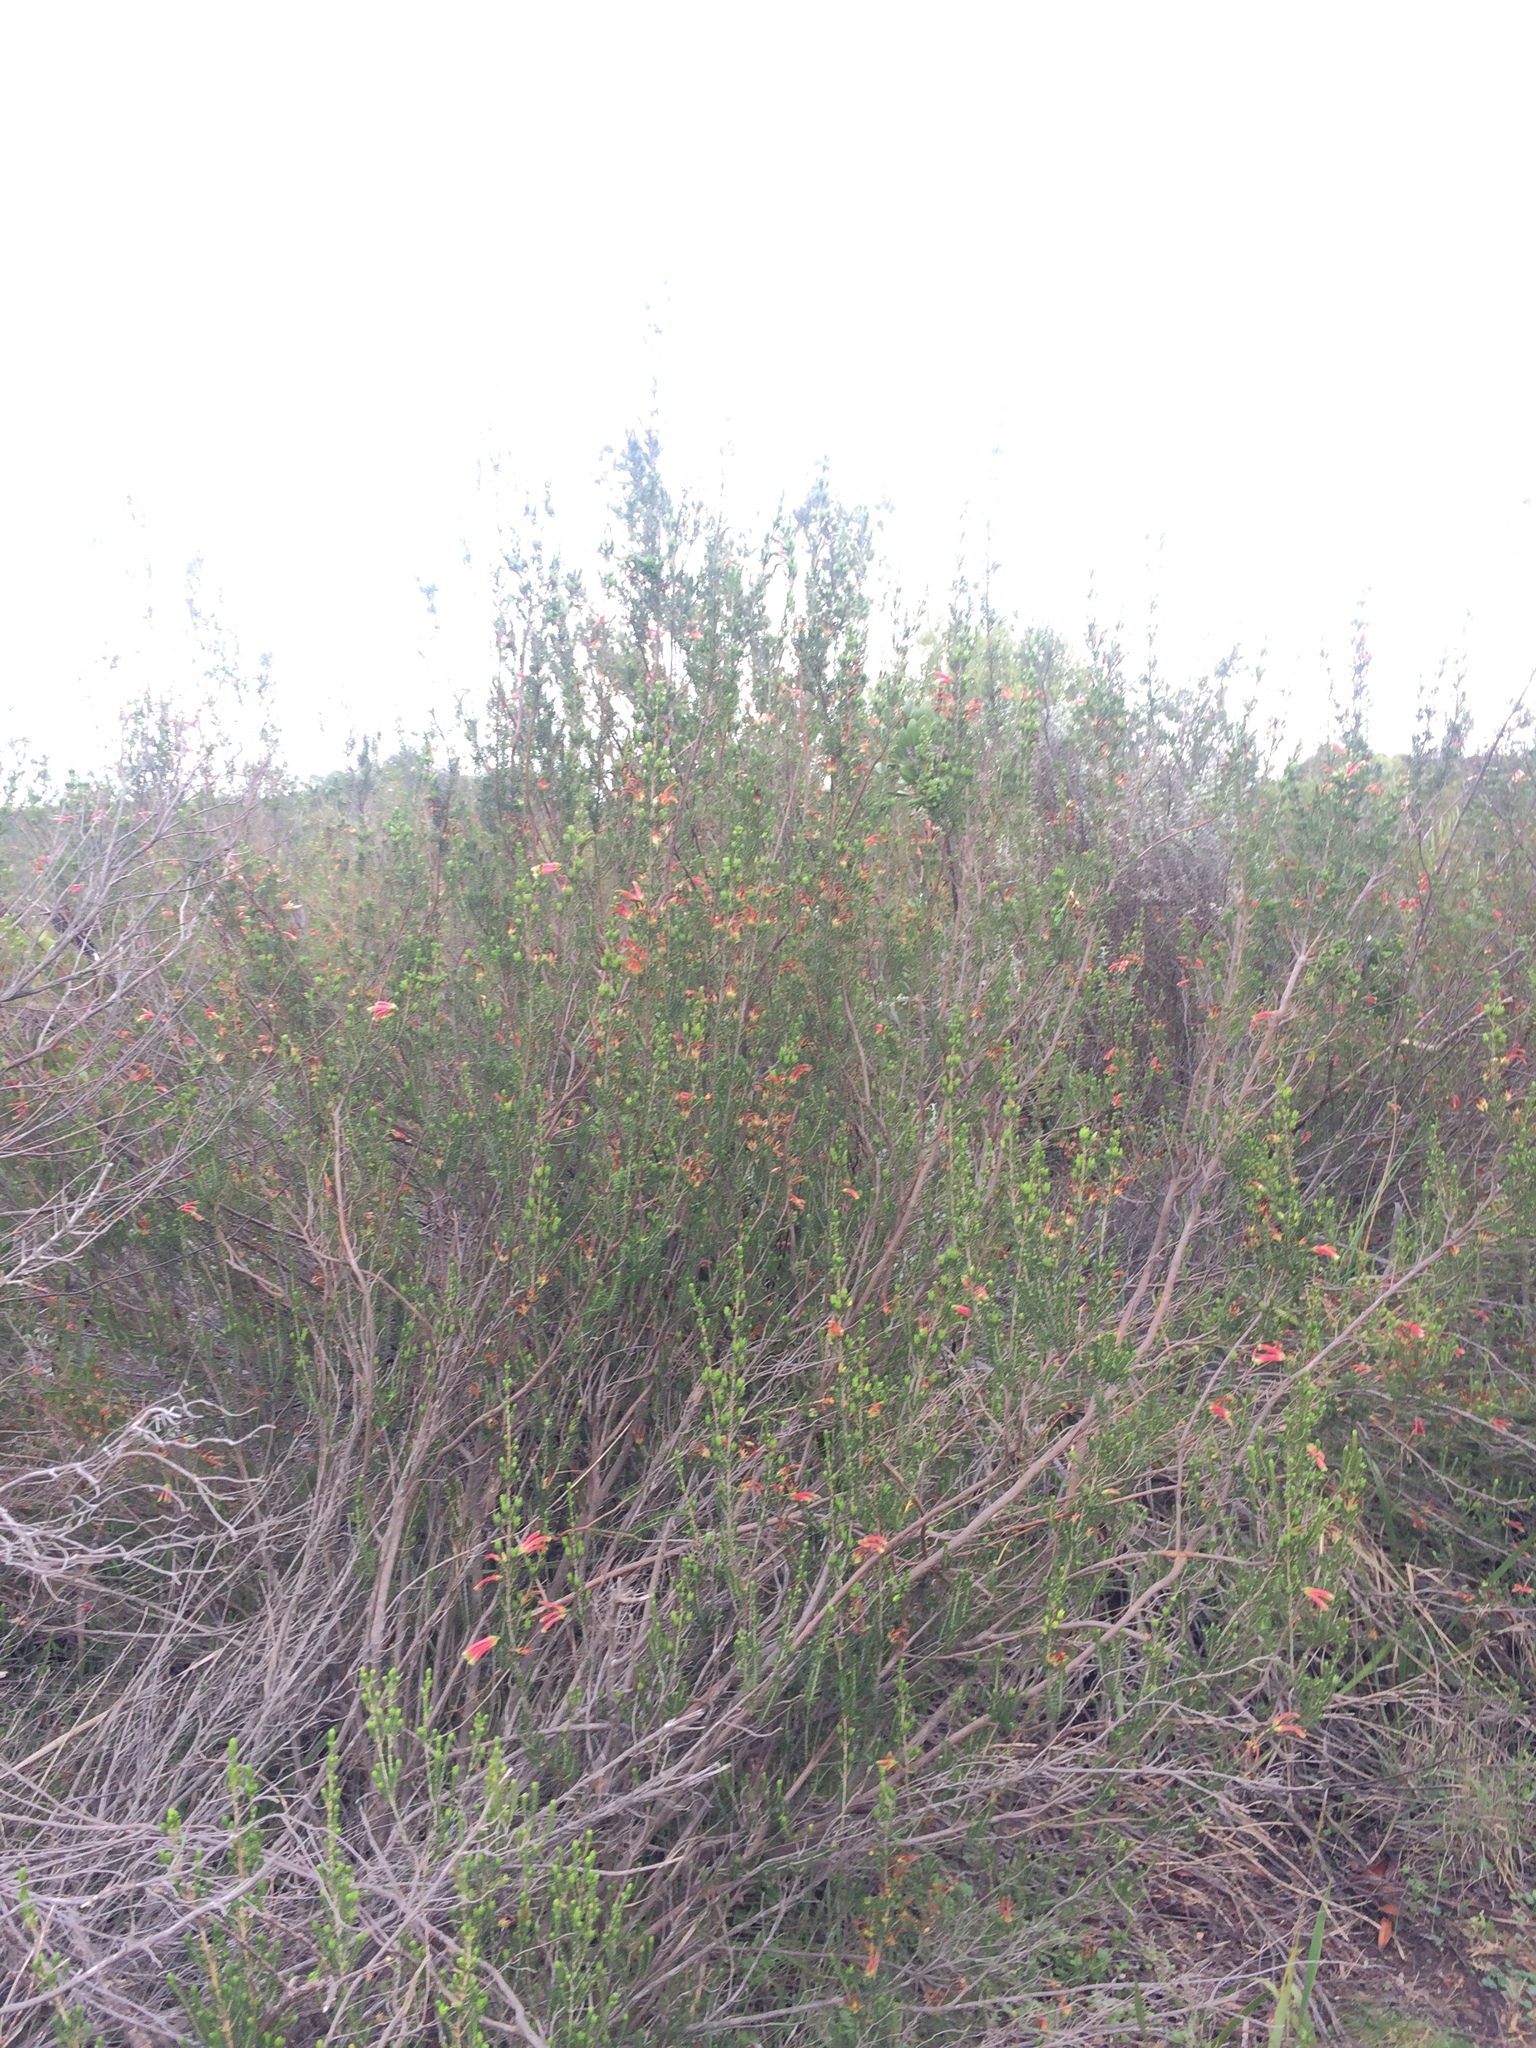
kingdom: Plantae
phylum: Tracheophyta
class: Magnoliopsida
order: Ericales
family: Ericaceae
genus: Erica
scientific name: Erica discolor
